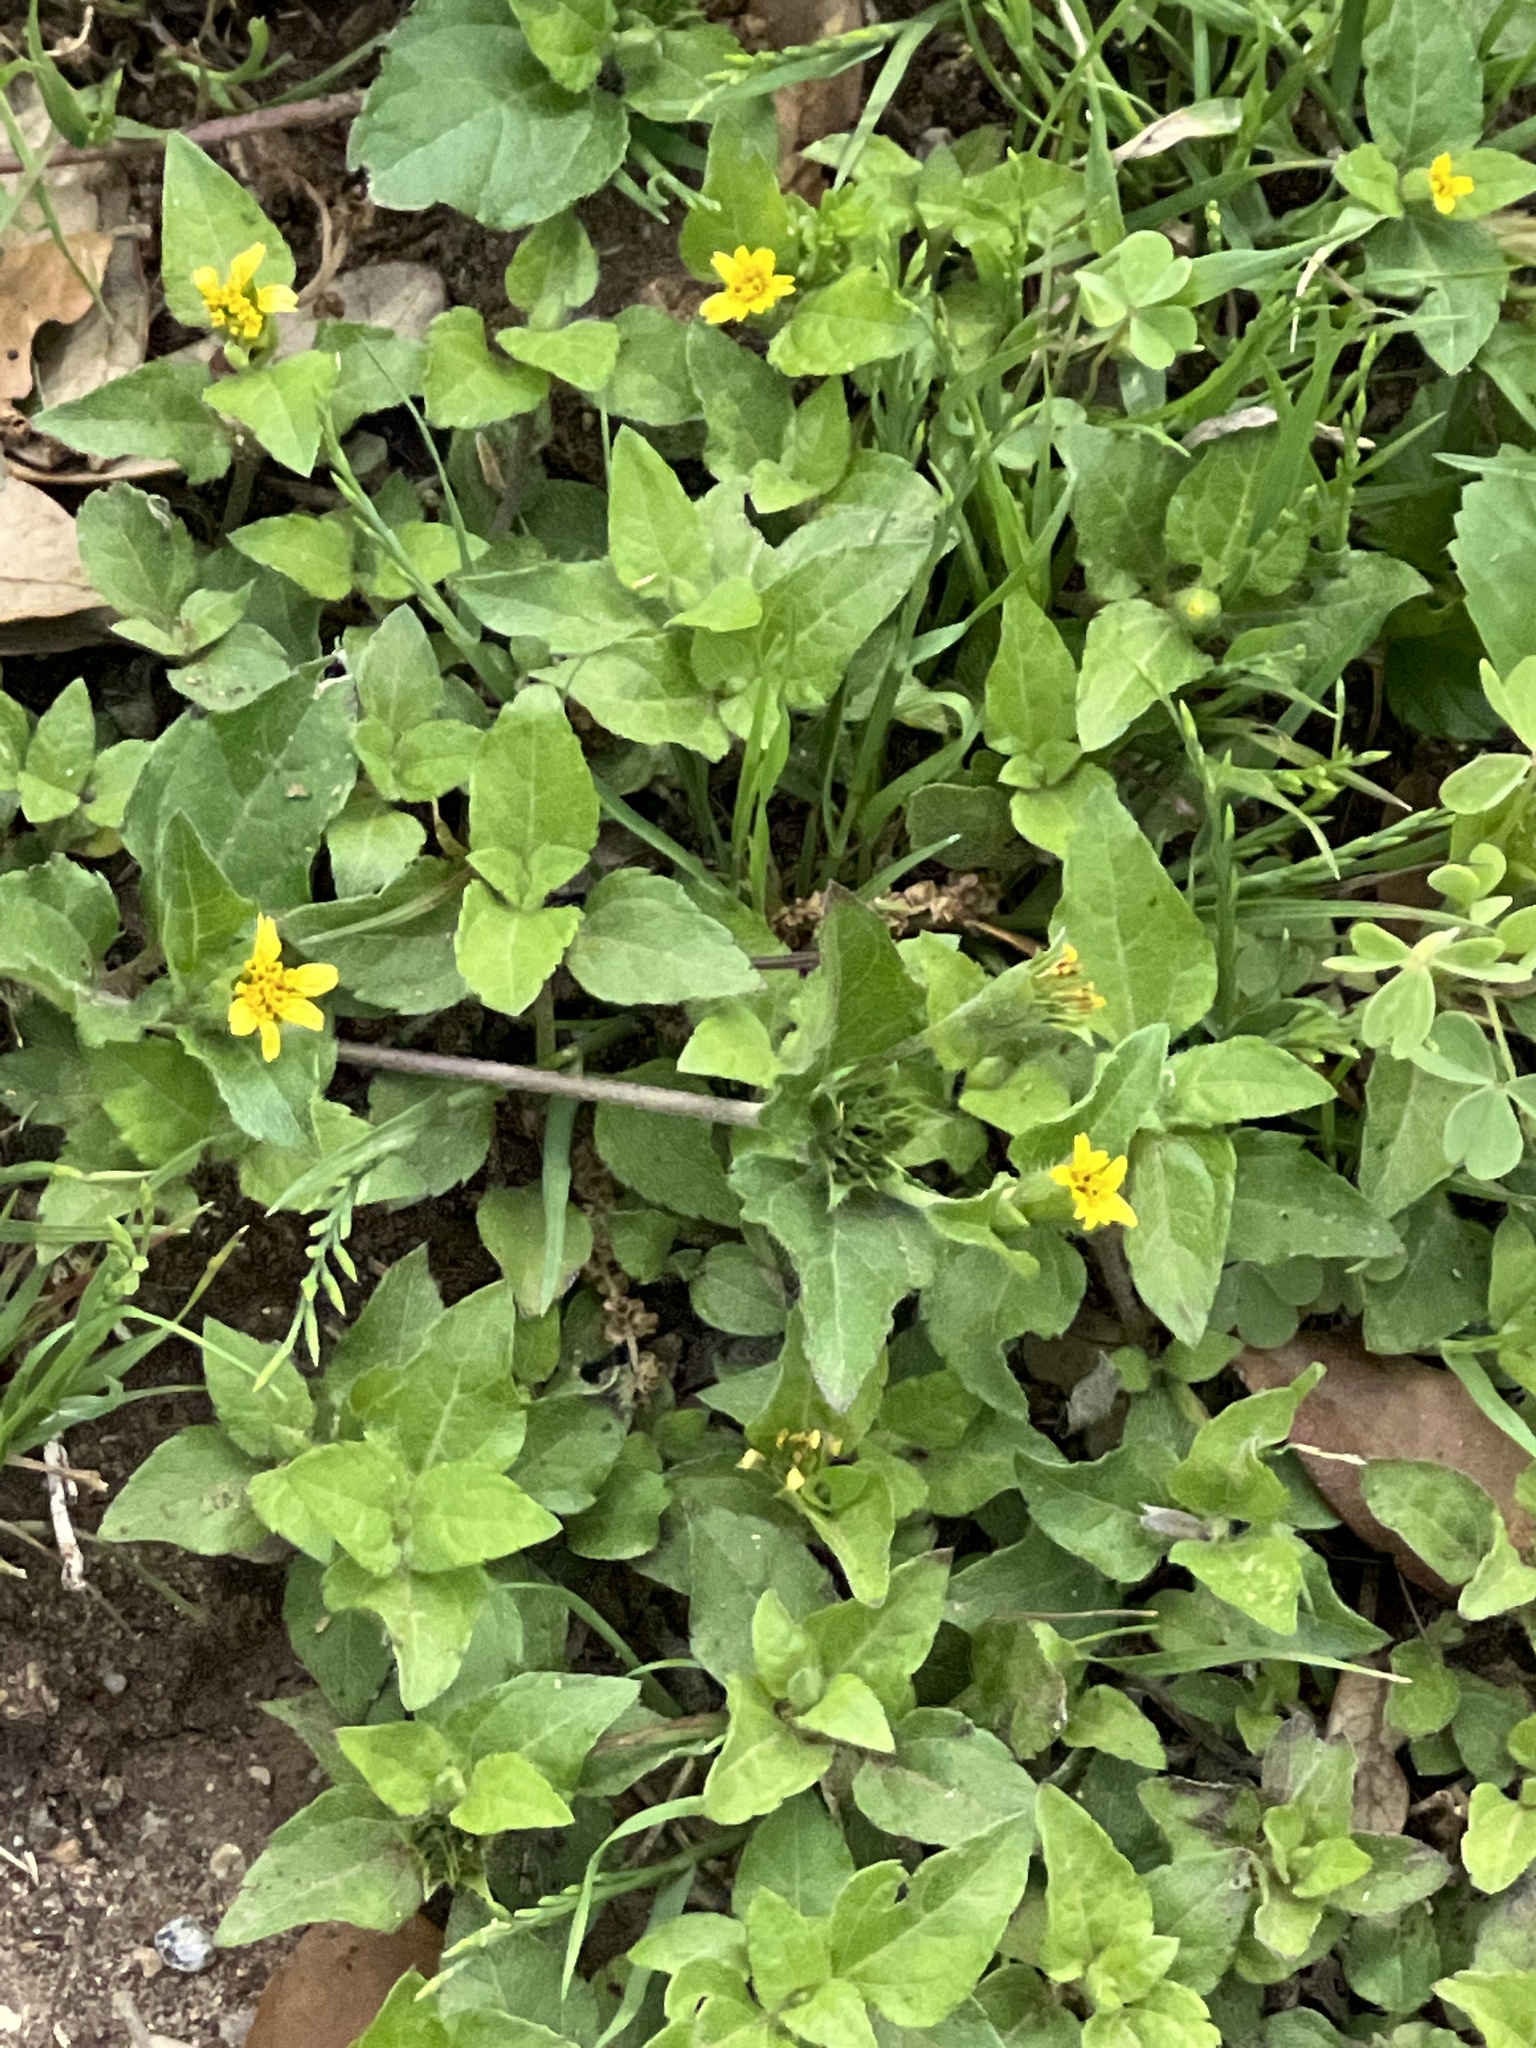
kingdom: Plantae
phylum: Tracheophyta
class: Magnoliopsida
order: Asterales
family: Asteraceae
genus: Calyptocarpus
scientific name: Calyptocarpus vialis
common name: Straggler daisy
